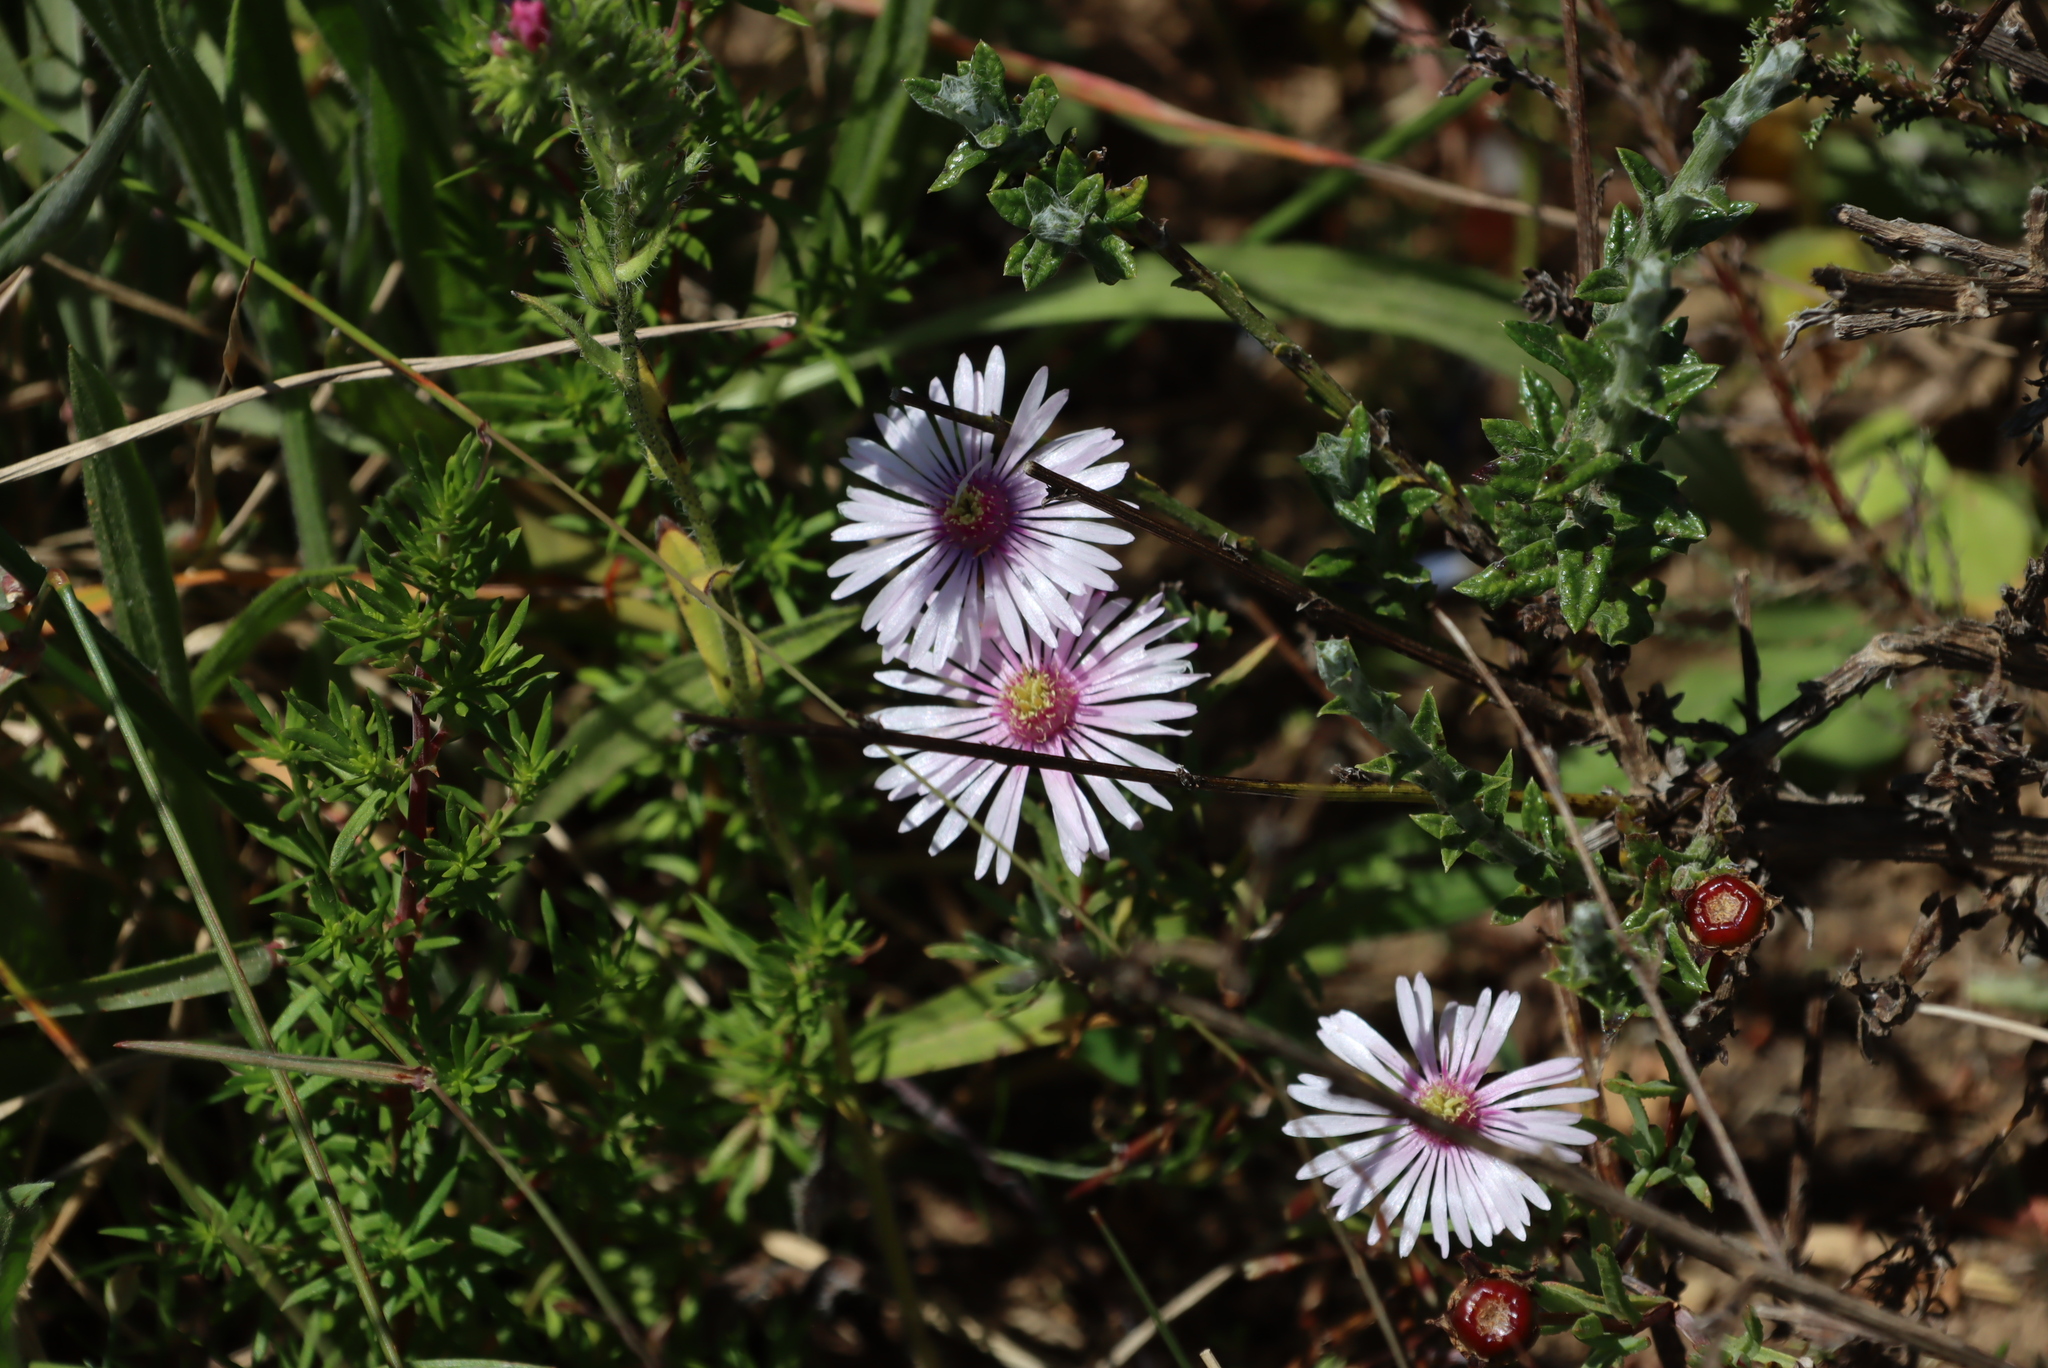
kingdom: Plantae
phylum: Tracheophyta
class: Magnoliopsida
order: Caryophyllales
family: Aizoaceae
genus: Lampranthus
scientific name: Lampranthus scaber
